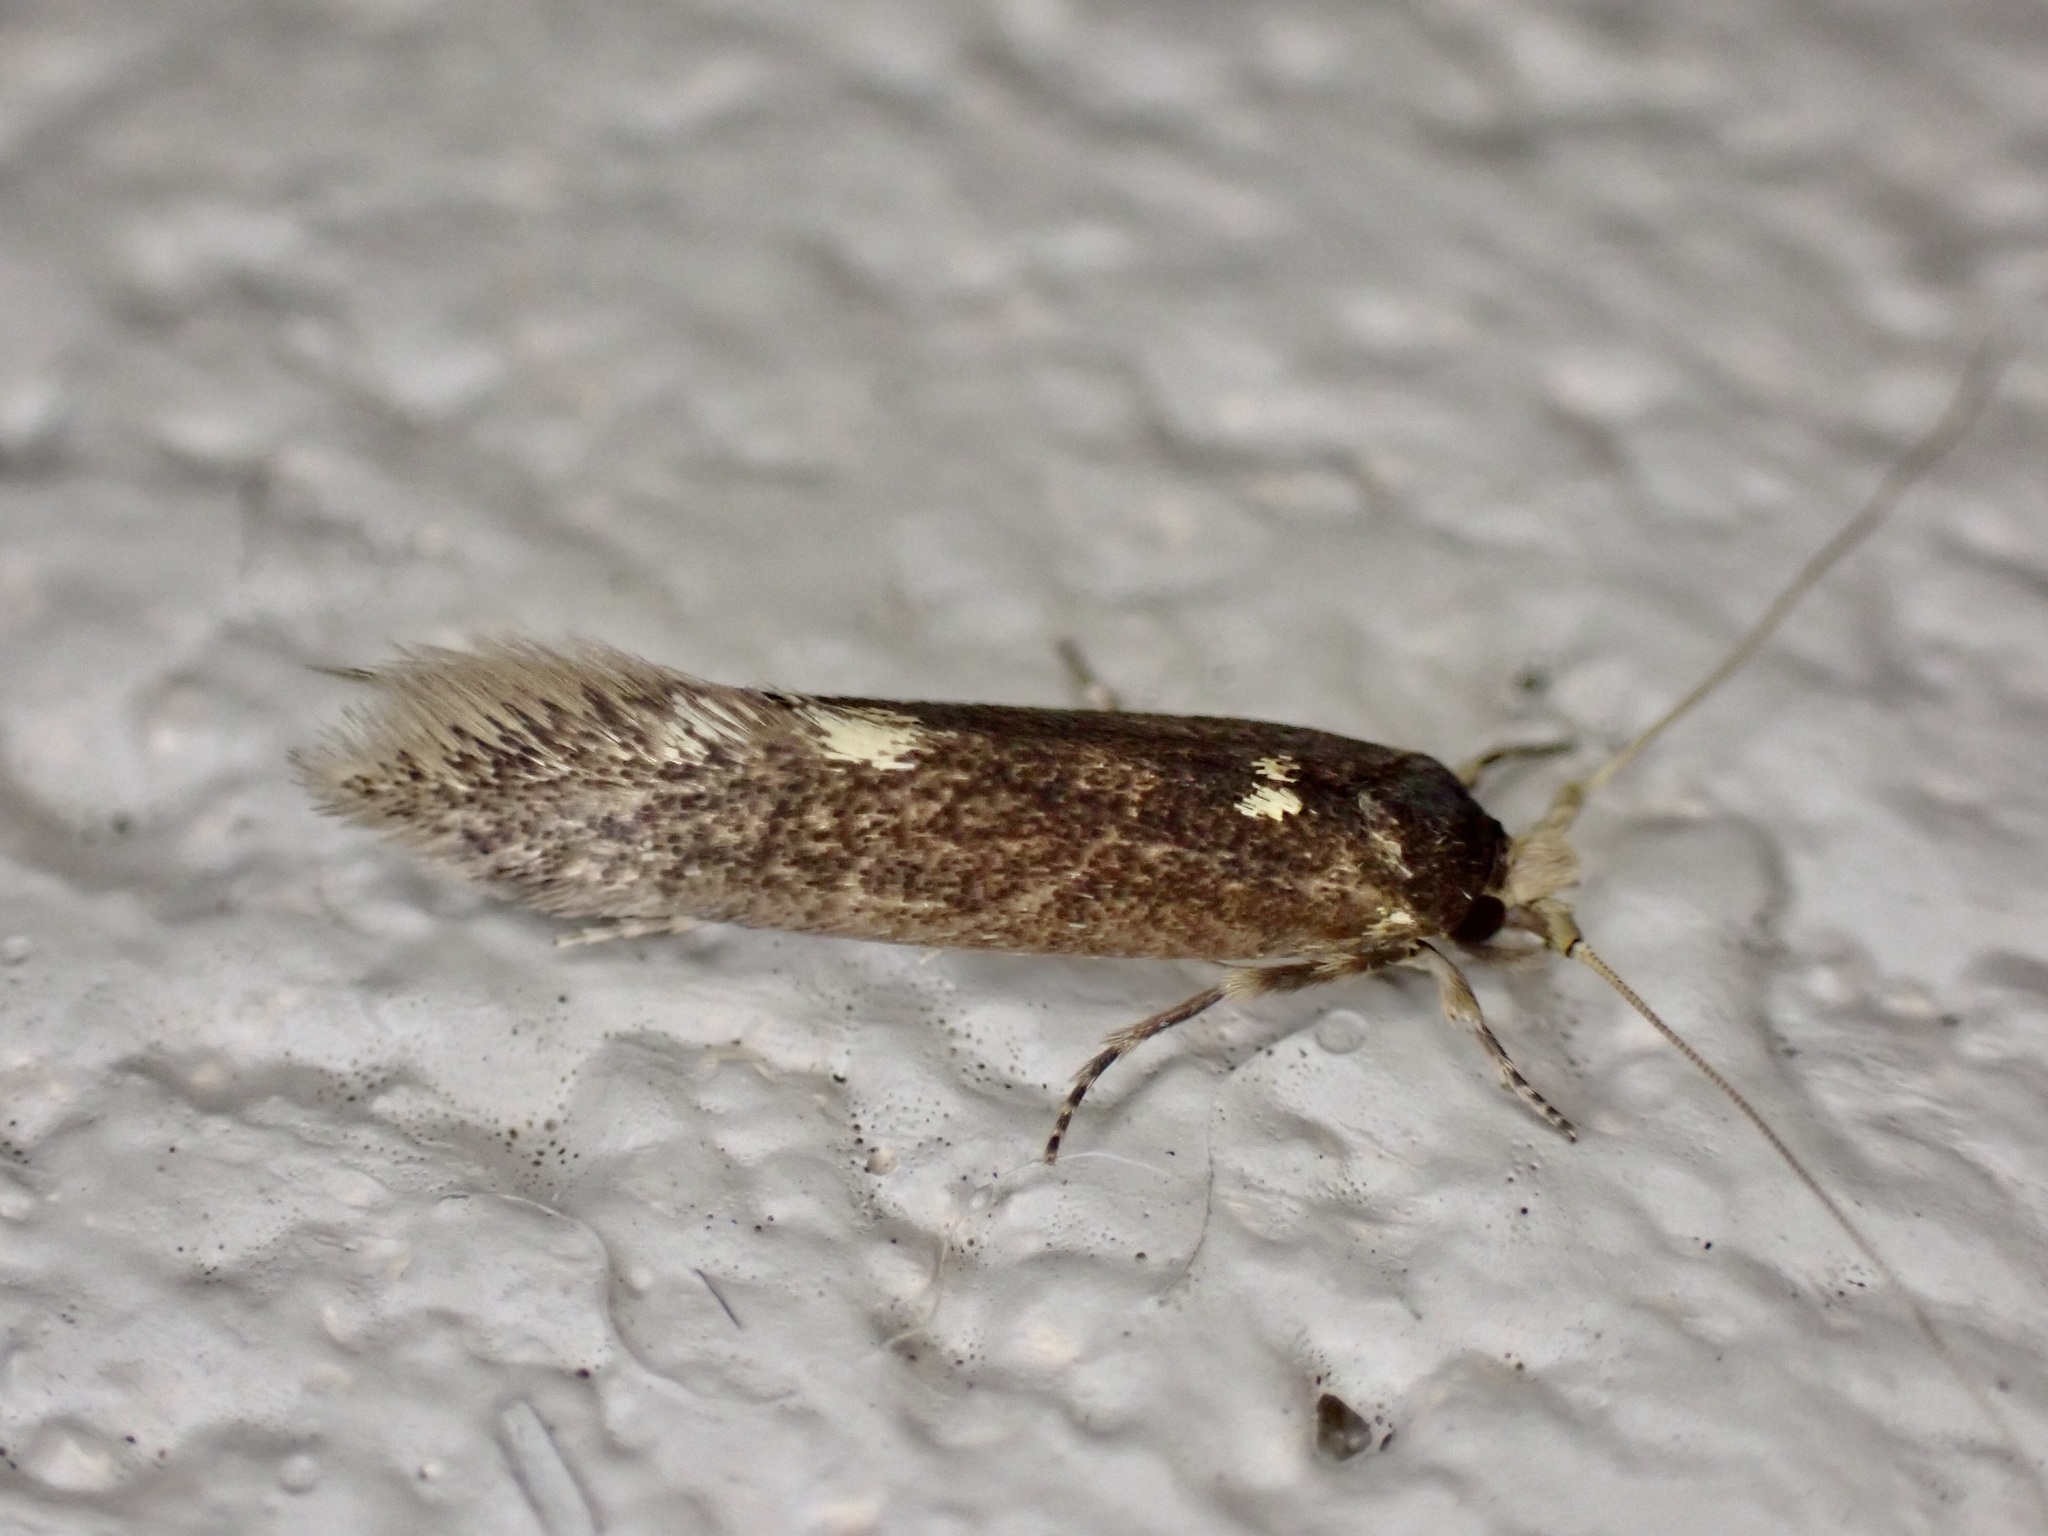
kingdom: Animalia
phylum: Arthropoda
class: Insecta
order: Lepidoptera
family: Tineidae
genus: Opogona
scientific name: Opogona omoscopa
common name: Moth
